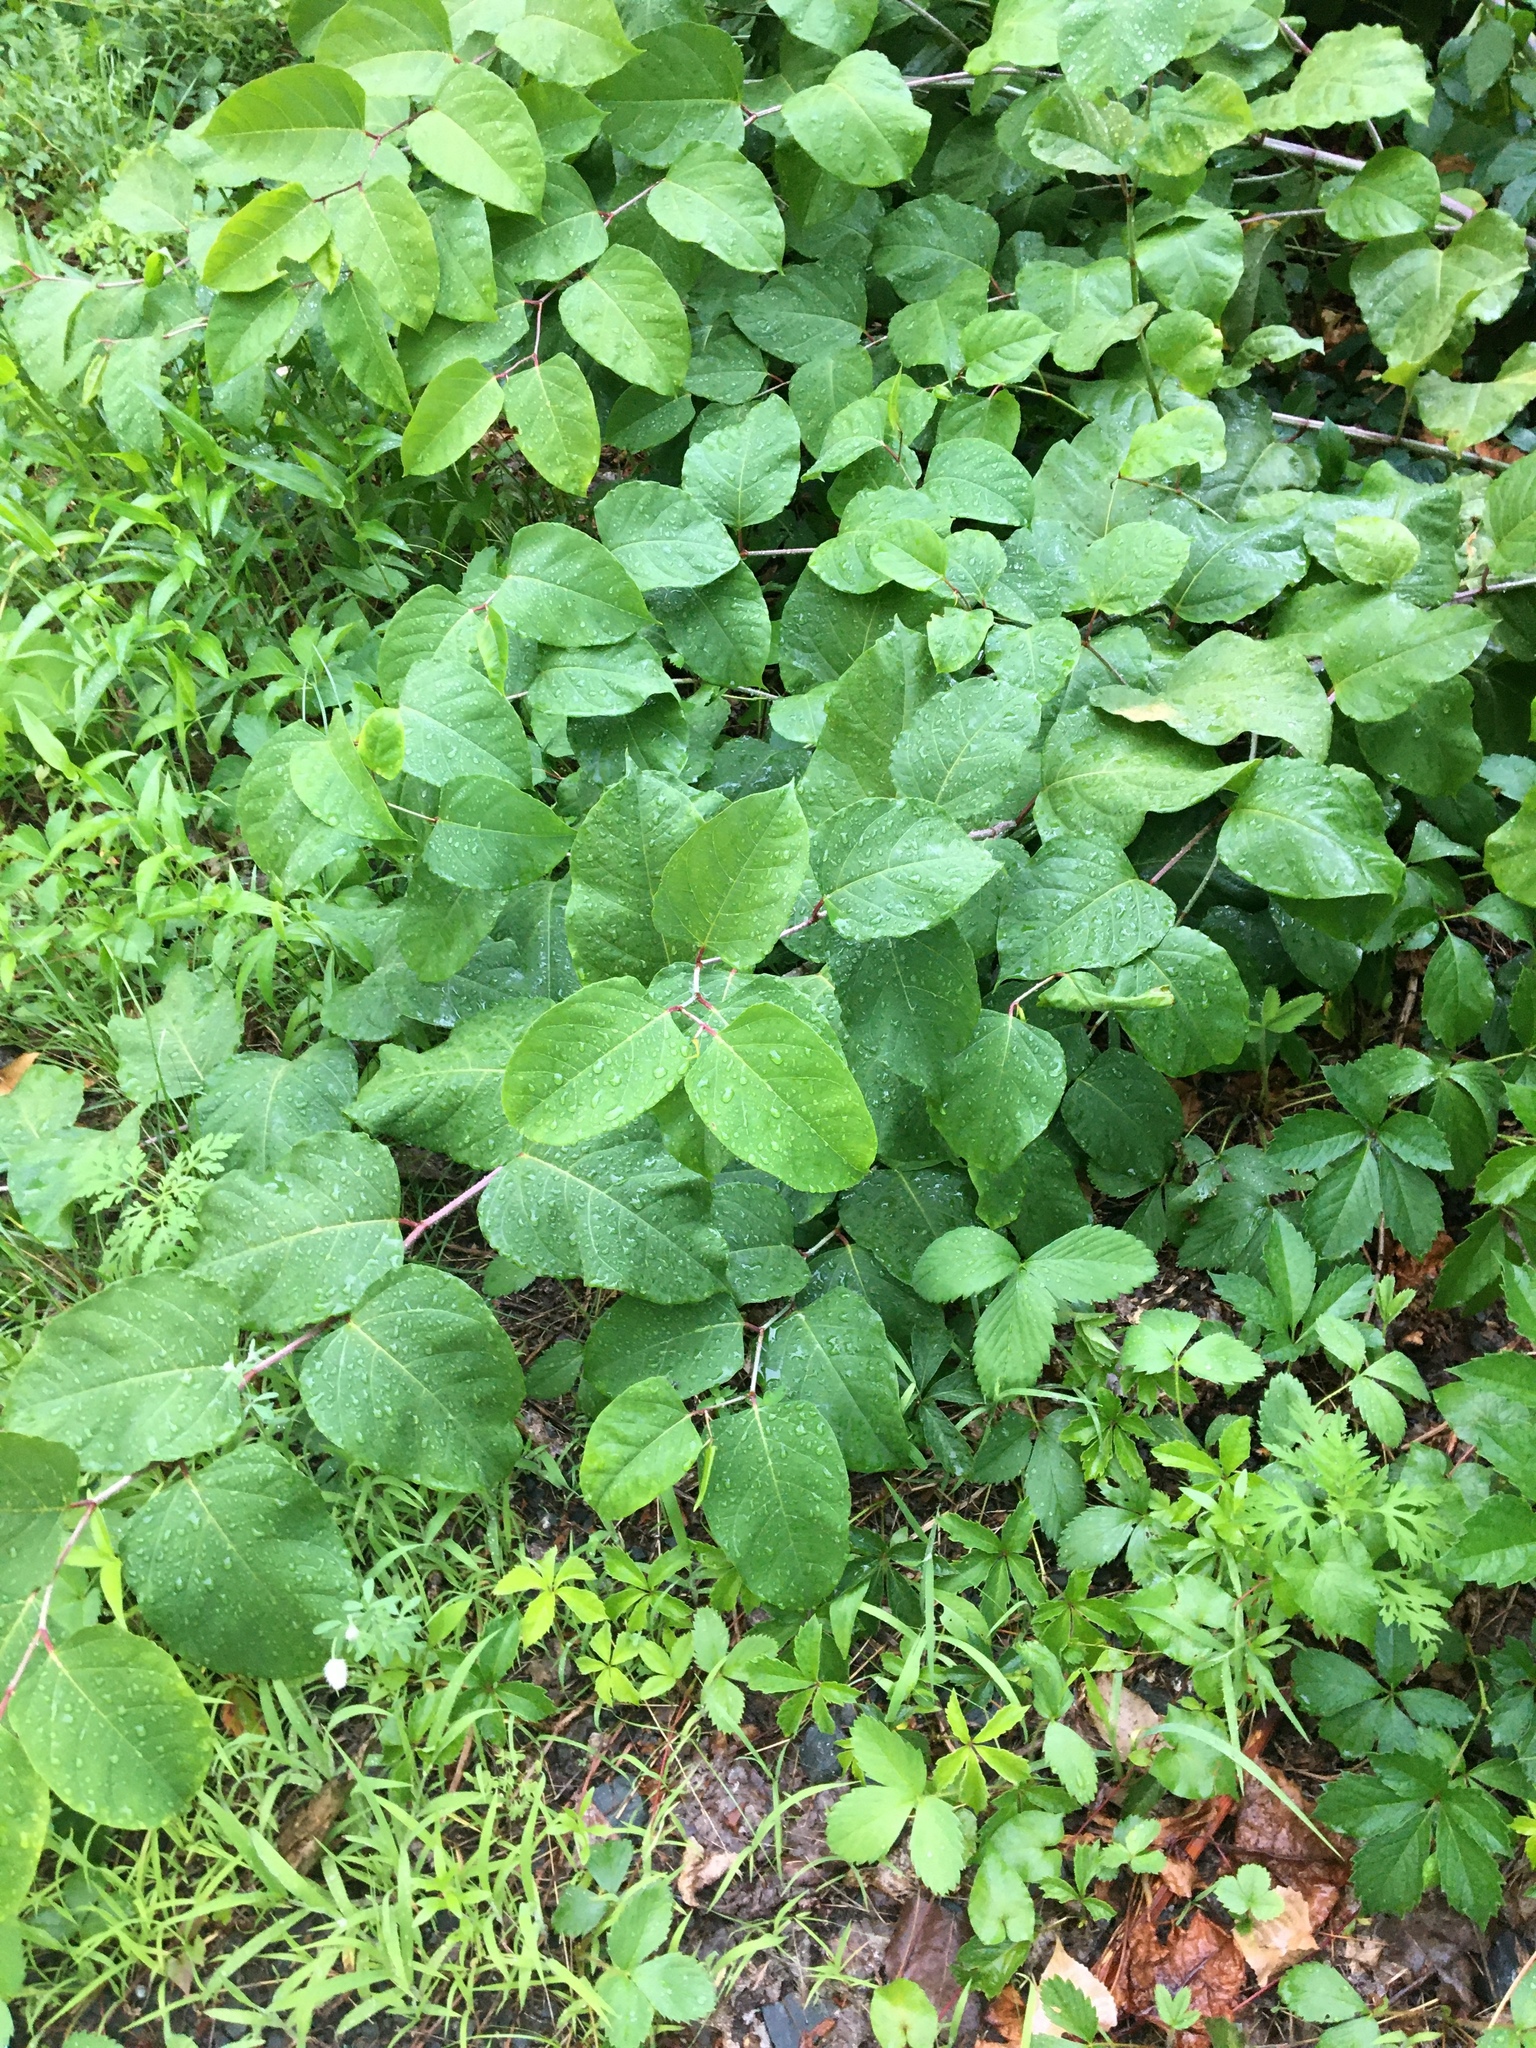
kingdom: Plantae
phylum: Tracheophyta
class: Magnoliopsida
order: Caryophyllales
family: Polygonaceae
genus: Reynoutria
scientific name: Reynoutria japonica
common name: Japanese knotweed
